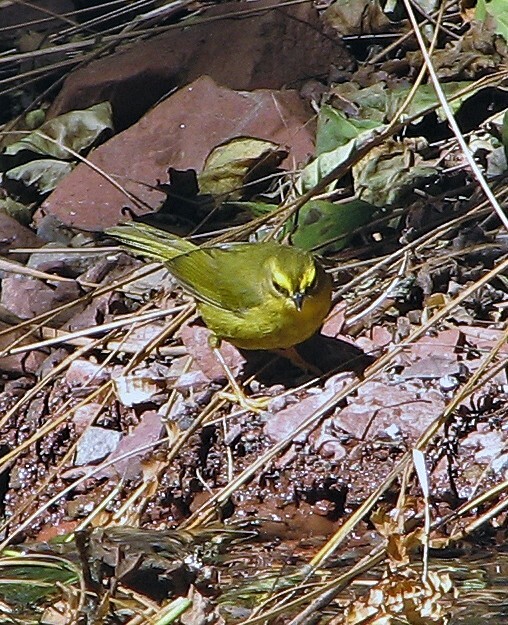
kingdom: Animalia
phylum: Chordata
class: Aves
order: Passeriformes
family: Parulidae
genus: Myiothlypis
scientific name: Myiothlypis signata
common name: Pale-legged warbler
